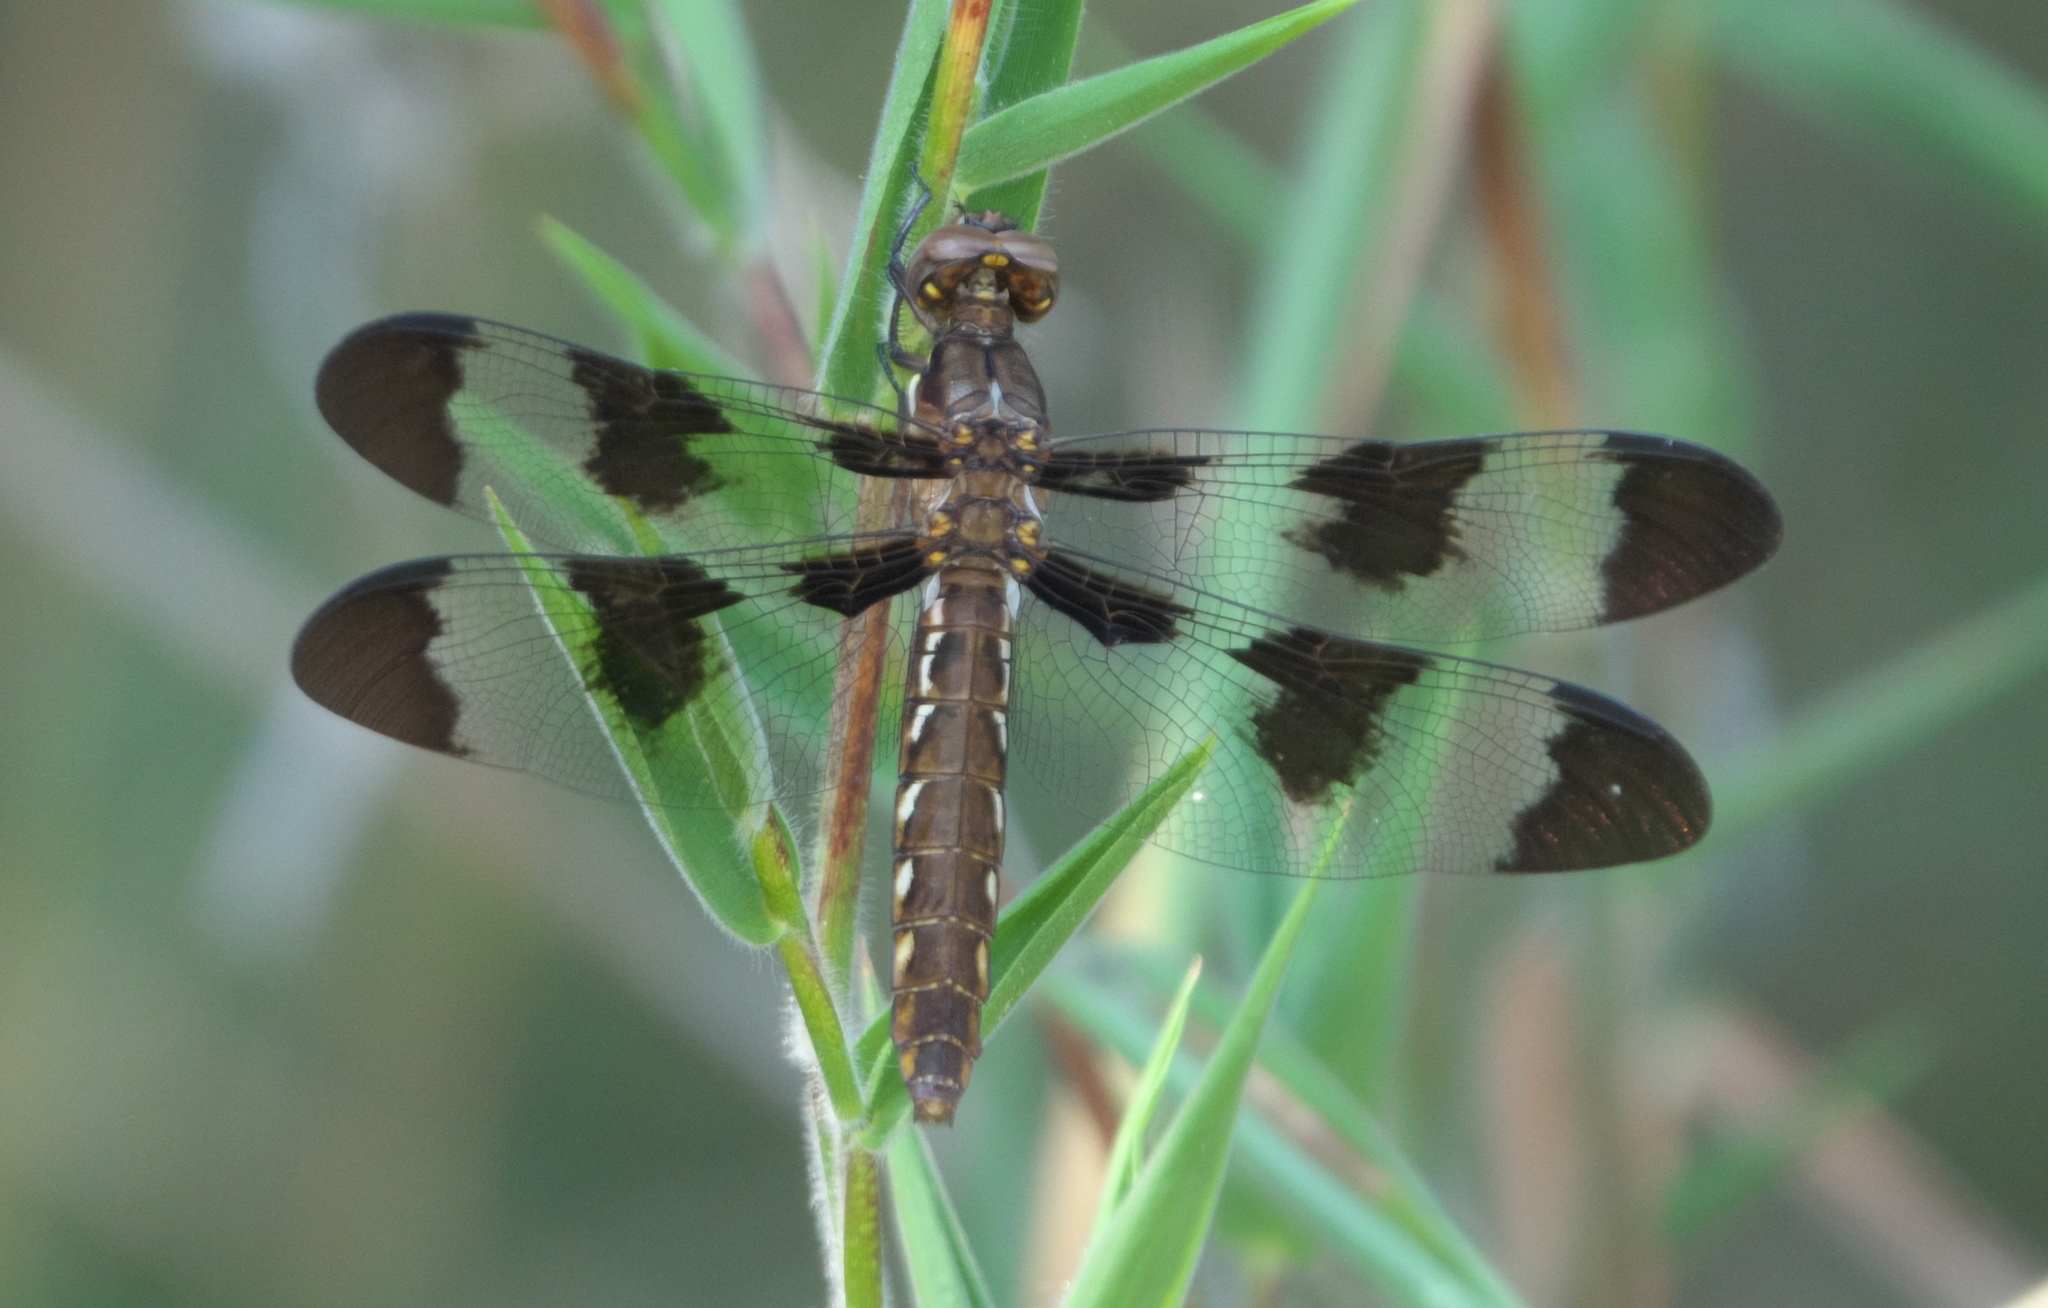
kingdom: Animalia
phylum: Arthropoda
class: Insecta
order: Odonata
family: Libellulidae
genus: Plathemis
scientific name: Plathemis lydia
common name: Common whitetail
